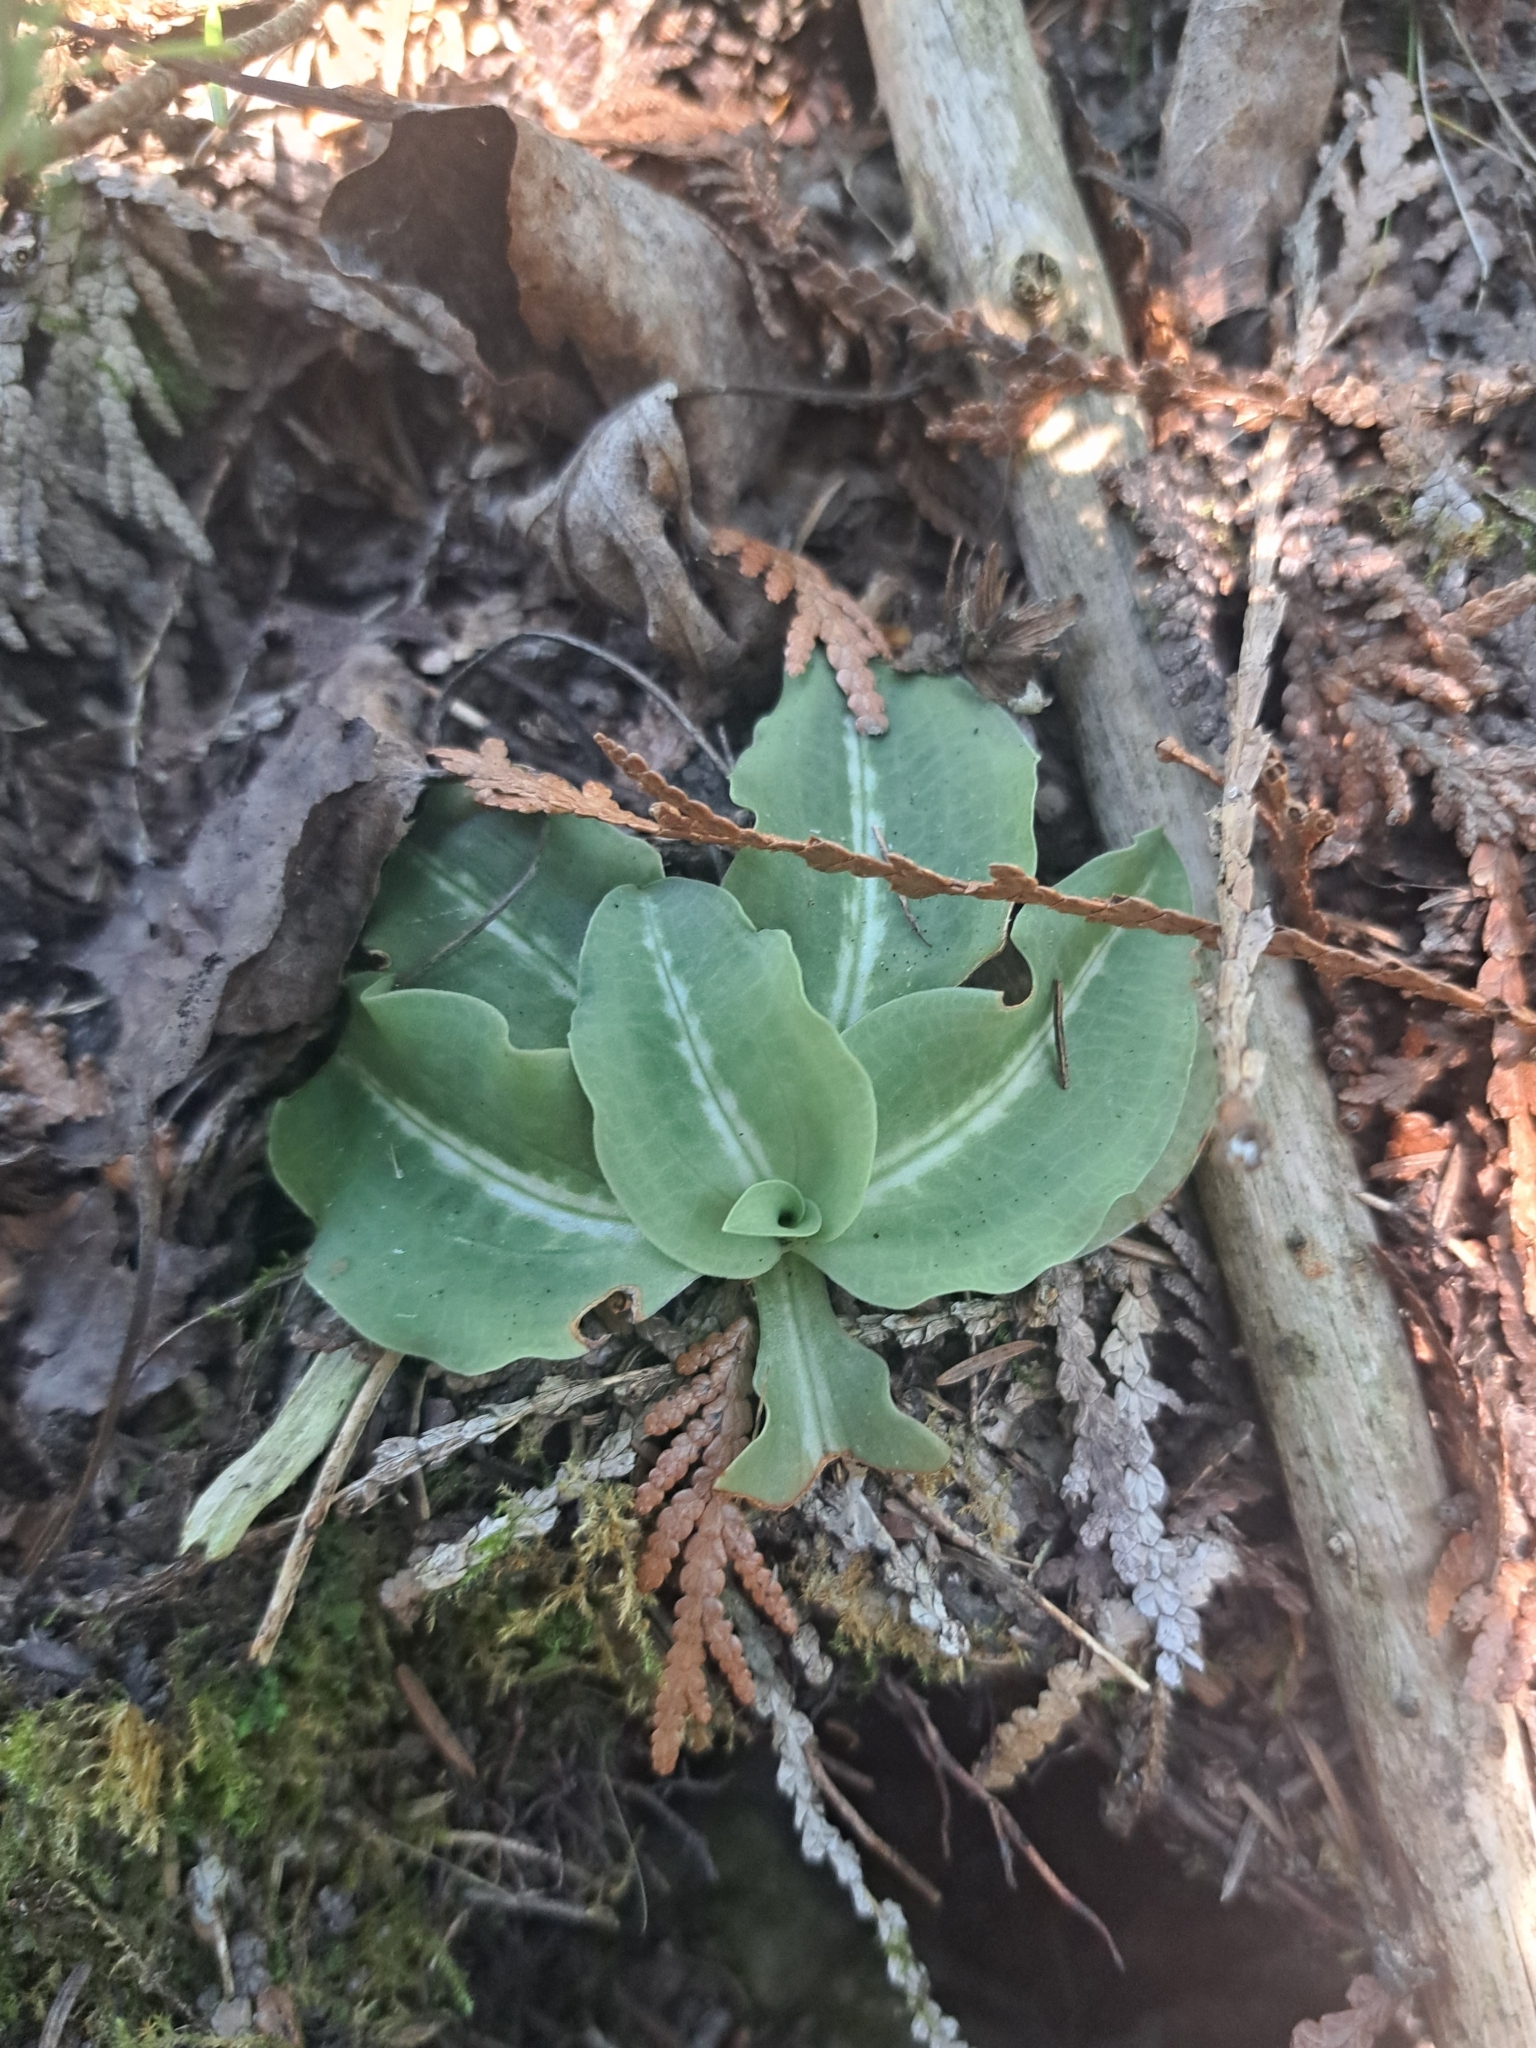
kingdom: Plantae
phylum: Tracheophyta
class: Liliopsida
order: Asparagales
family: Orchidaceae
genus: Goodyera
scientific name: Goodyera oblongifolia
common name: Giant rattlesnake-plantain
